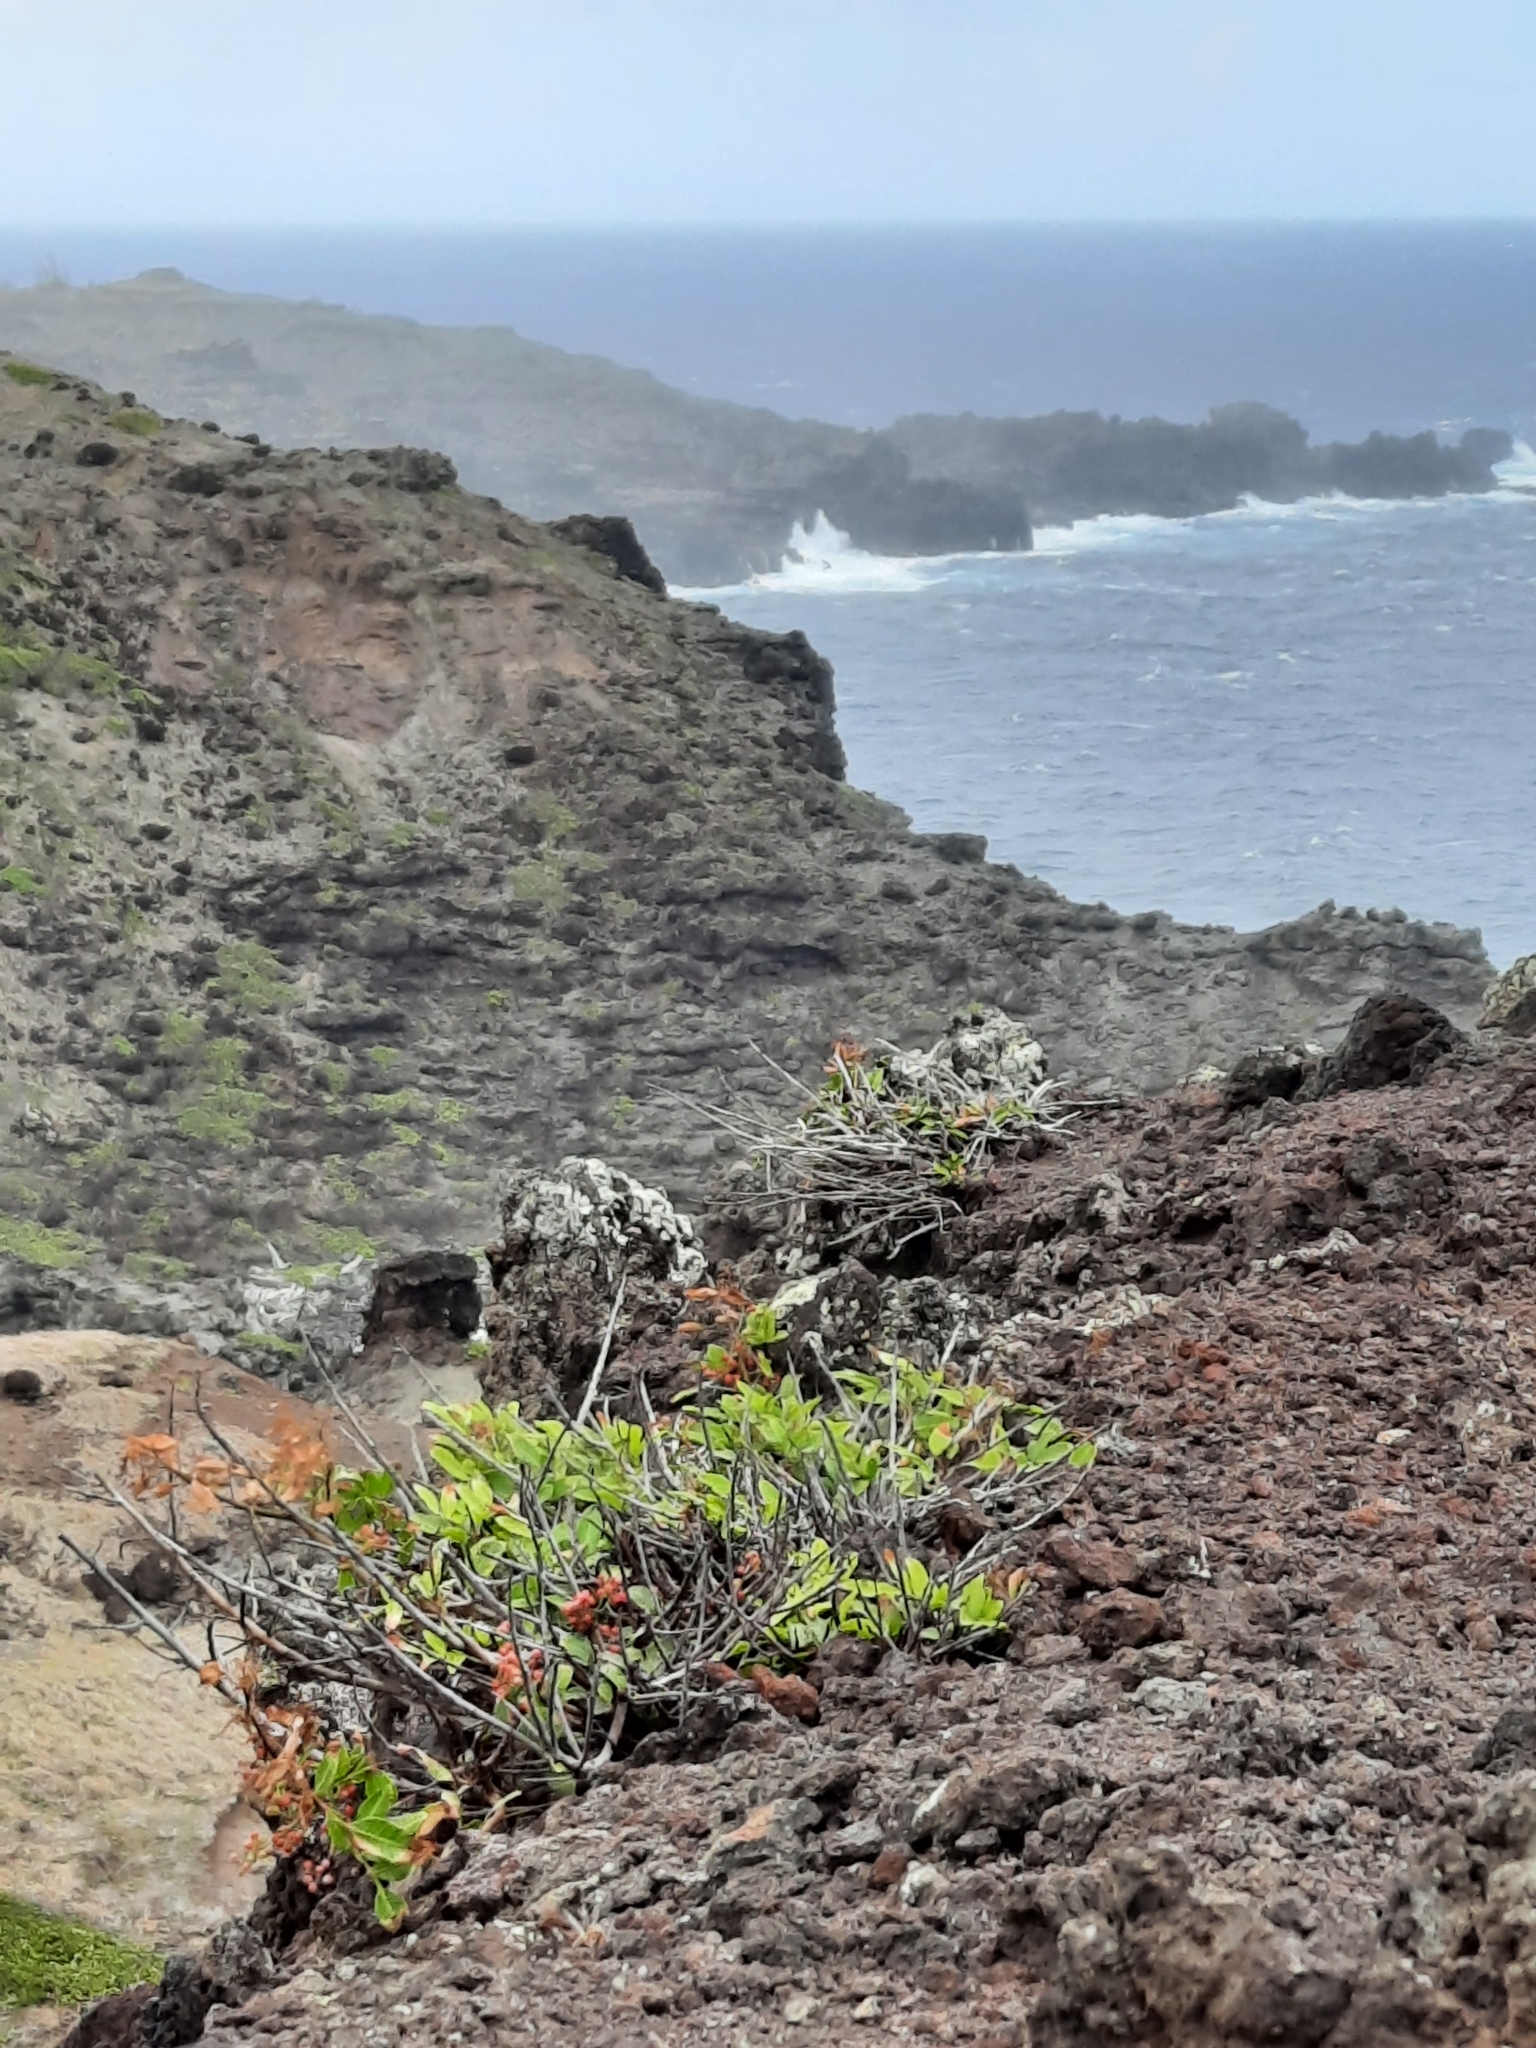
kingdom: Plantae
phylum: Tracheophyta
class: Magnoliopsida
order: Sapindales
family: Anacardiaceae
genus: Schinus
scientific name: Schinus terebinthifolia
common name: Brazilian peppertree
